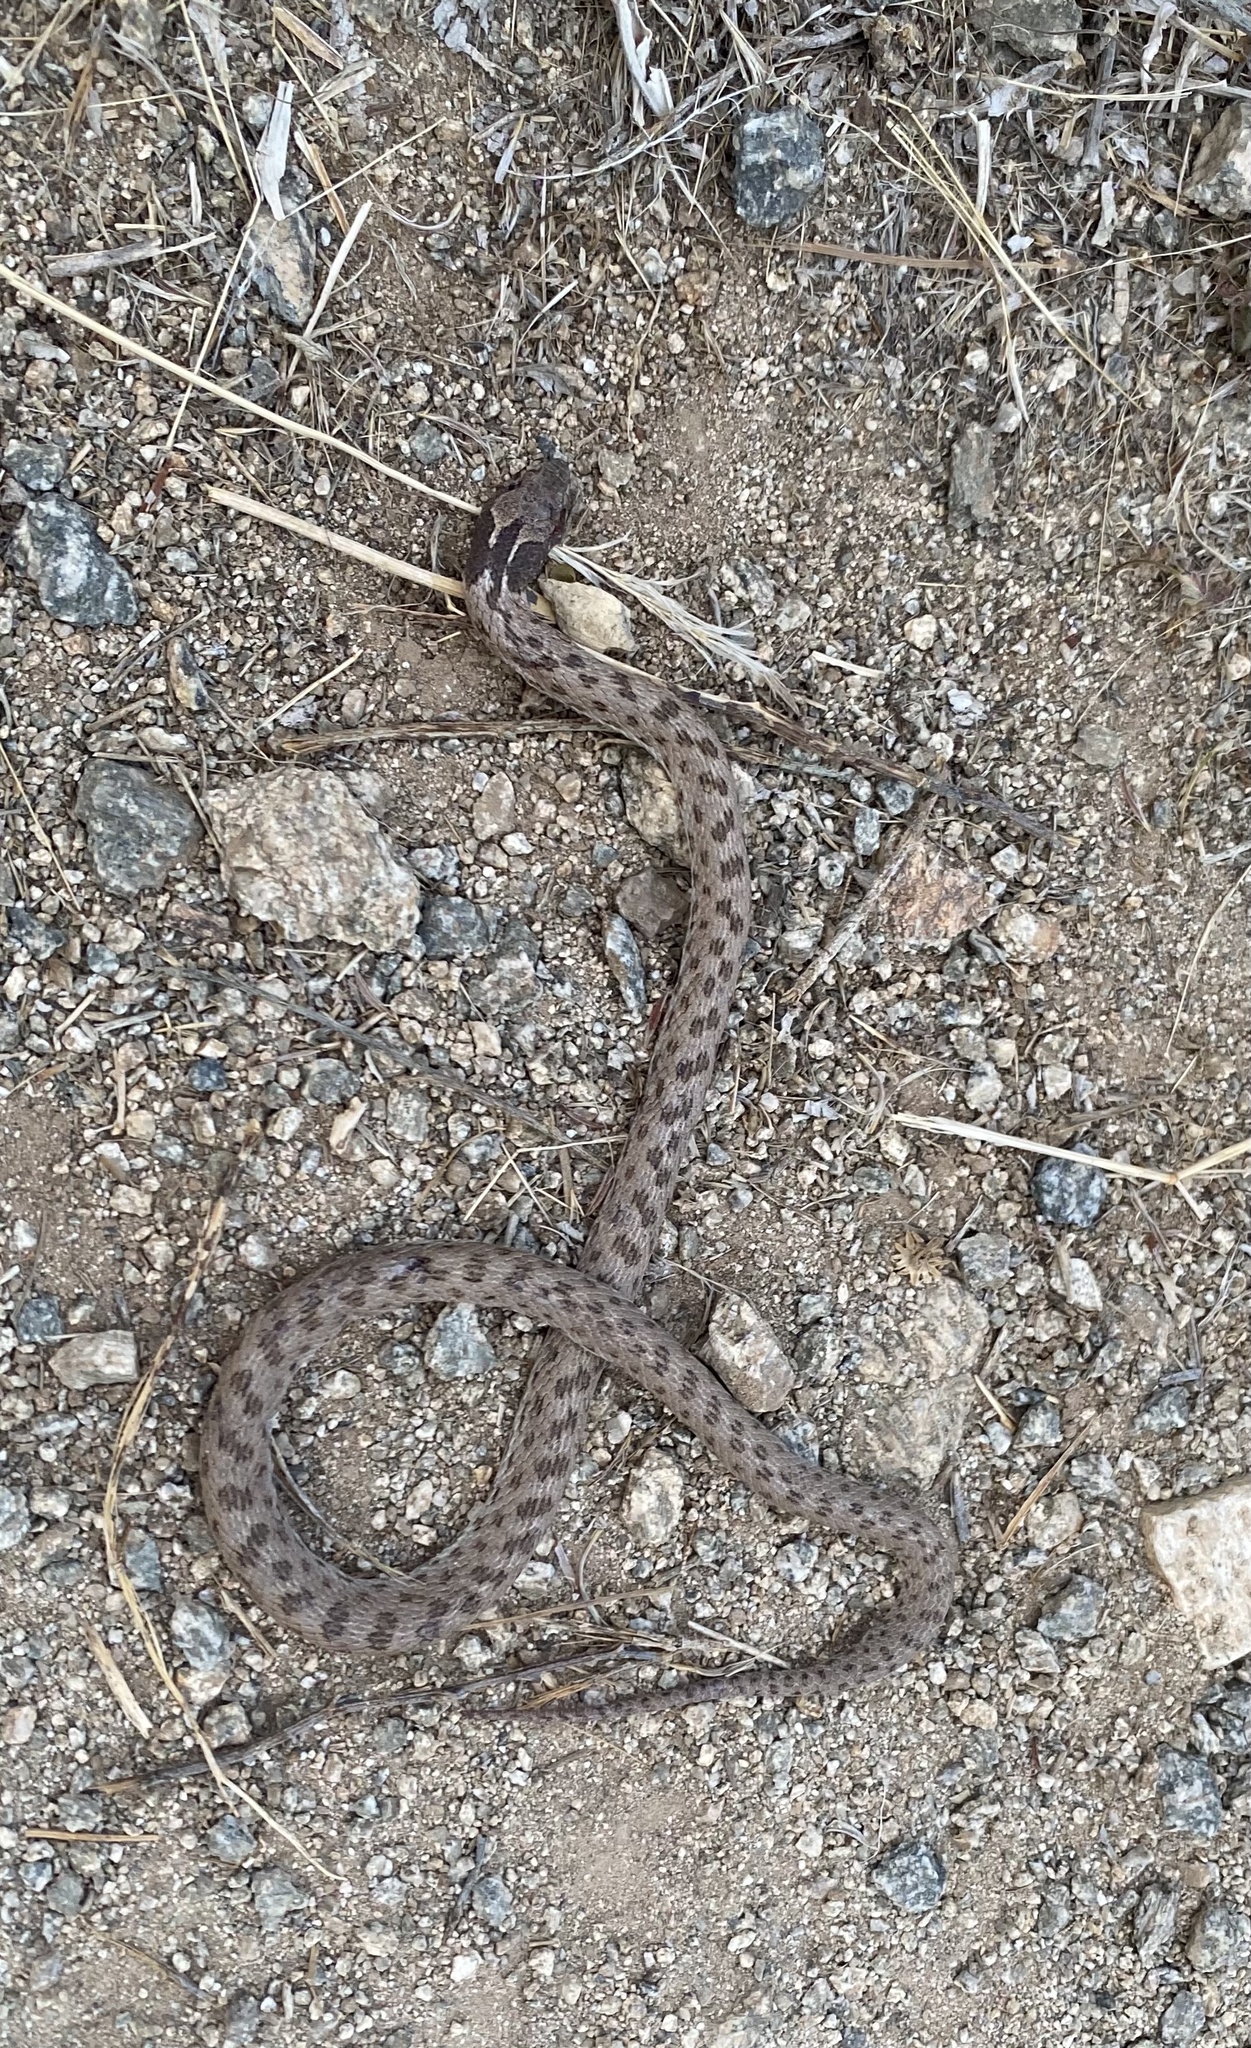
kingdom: Animalia
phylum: Chordata
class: Squamata
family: Colubridae
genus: Hypsiglena
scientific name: Hypsiglena chlorophaea
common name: Desert nightsnake
